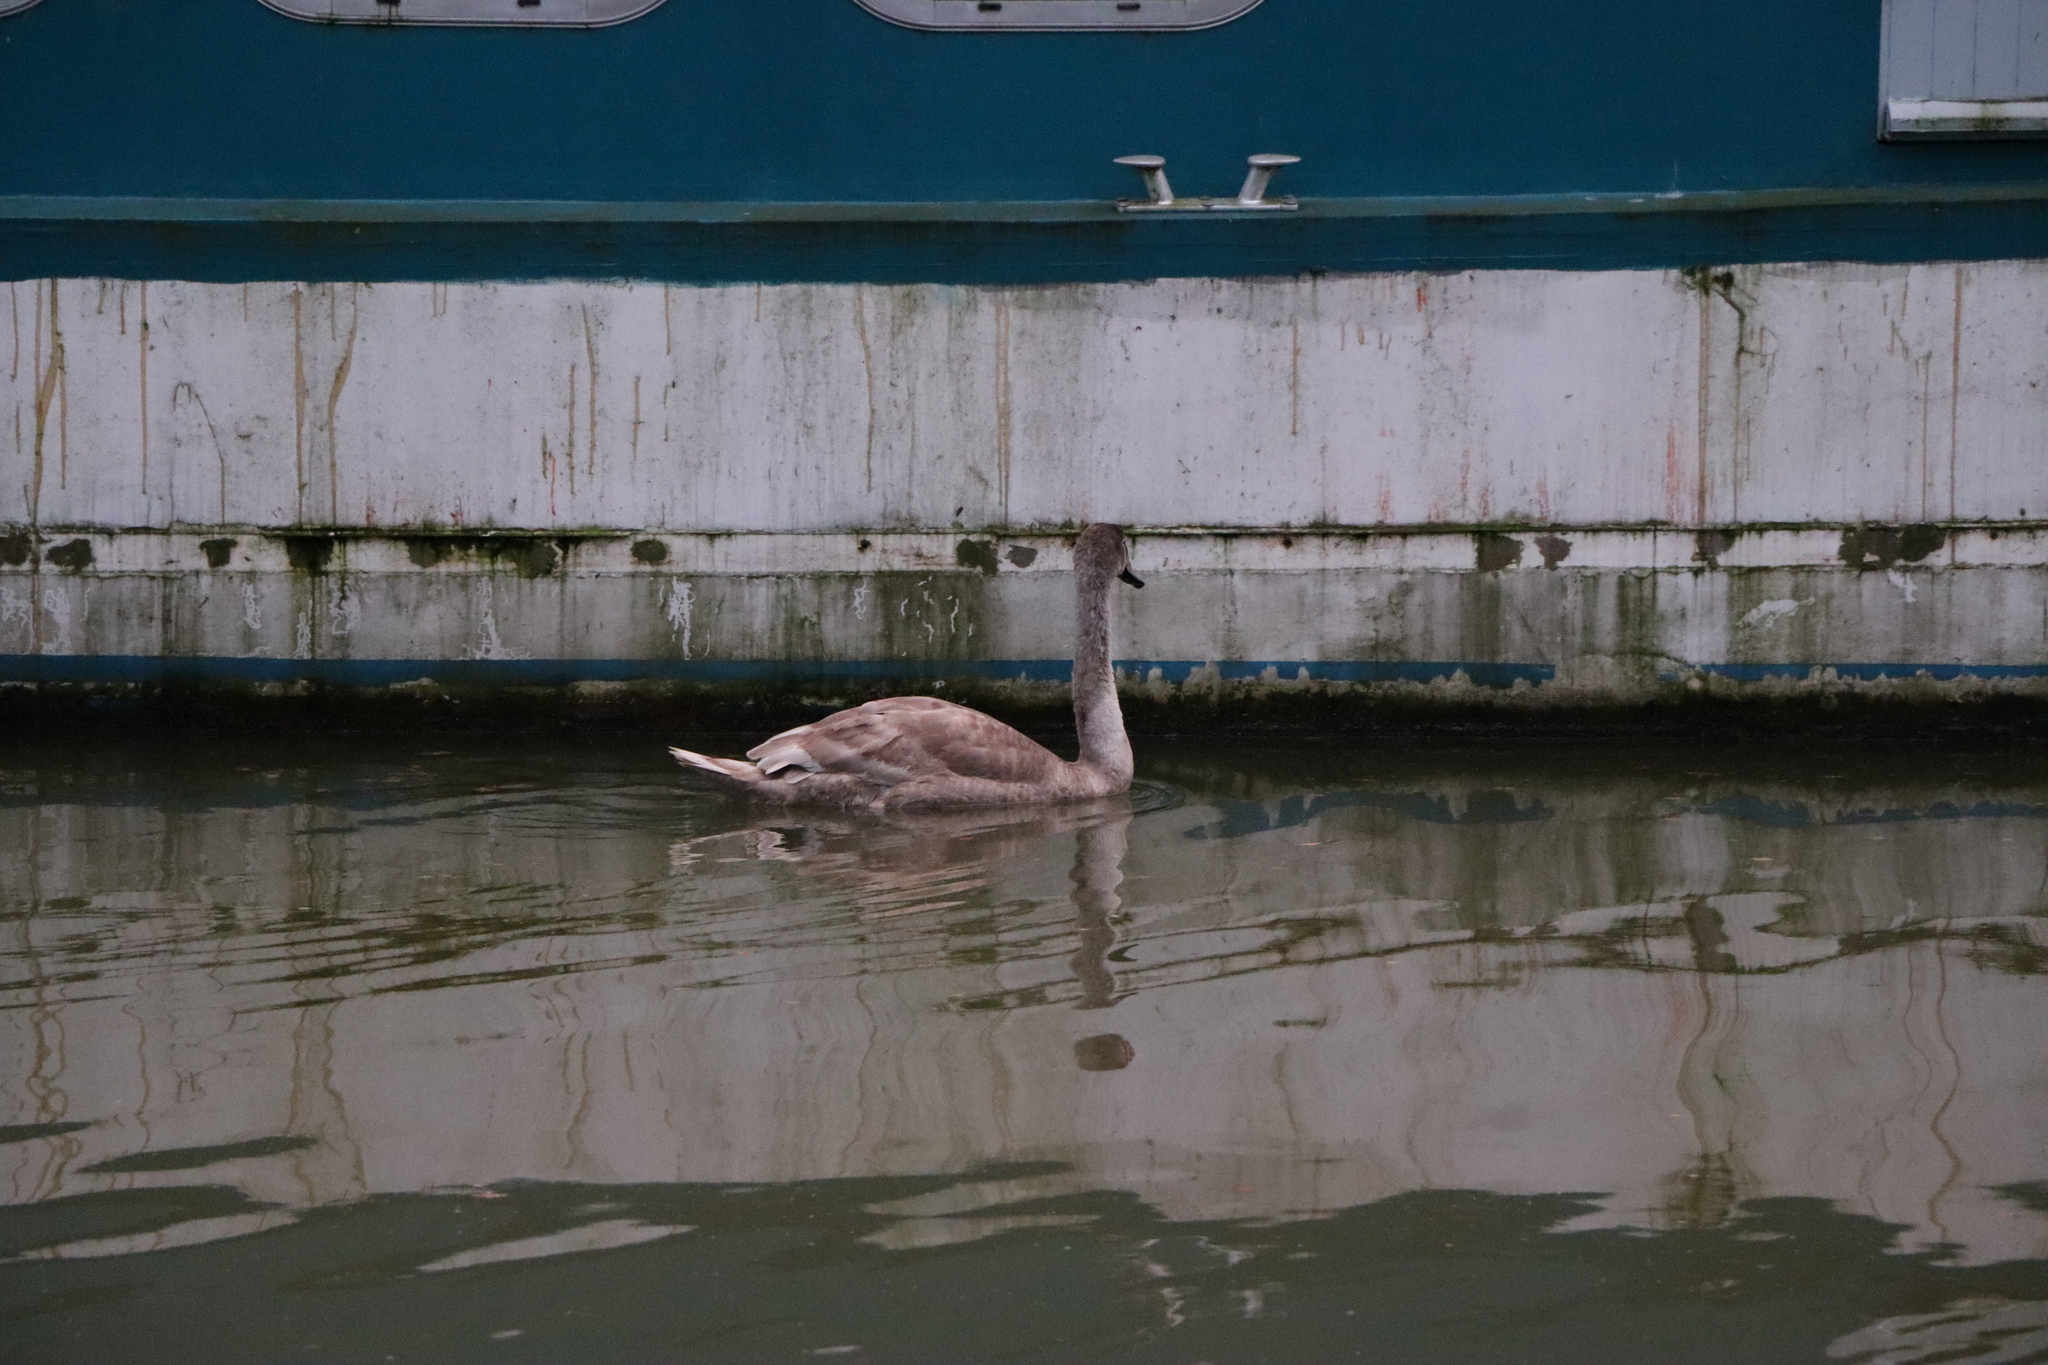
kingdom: Animalia
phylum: Chordata
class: Aves
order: Anseriformes
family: Anatidae
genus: Cygnus
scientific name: Cygnus olor
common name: Mute swan
